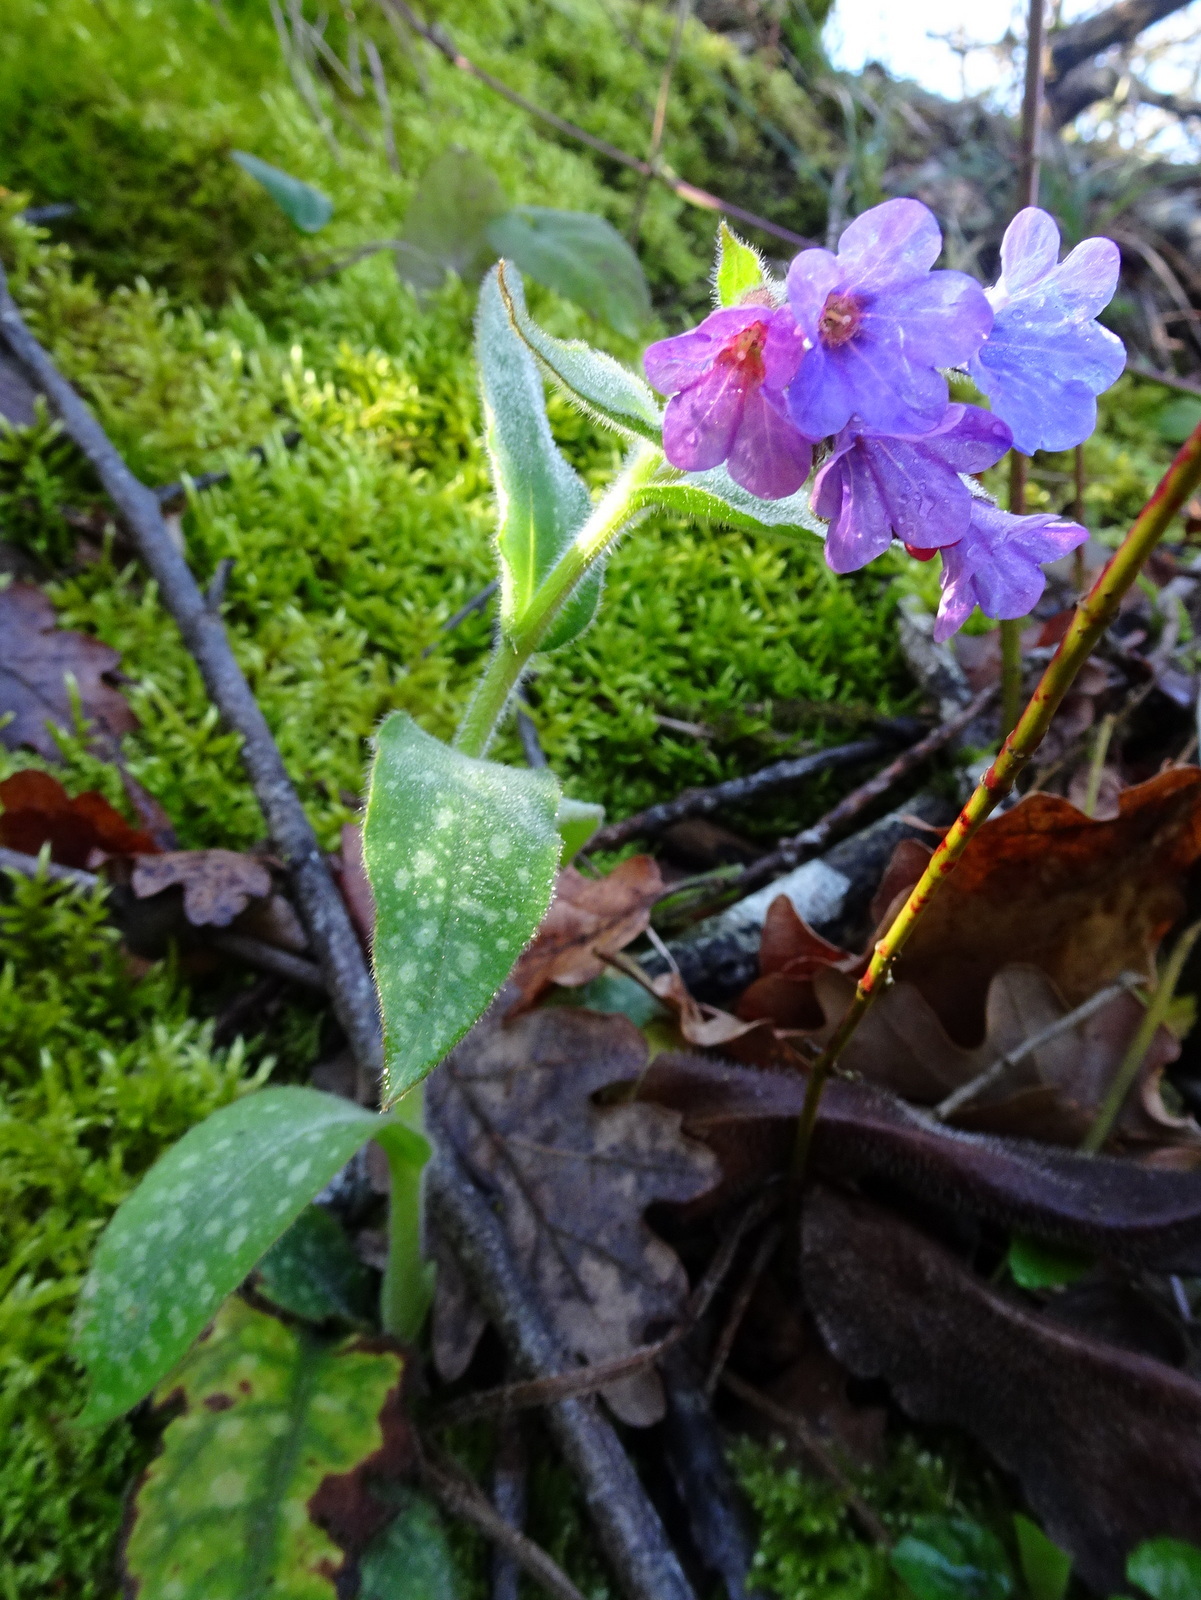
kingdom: Plantae
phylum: Tracheophyta
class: Magnoliopsida
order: Boraginales
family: Boraginaceae
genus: Pulmonaria
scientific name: Pulmonaria longifolia
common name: Narrow-leaved lungwort
